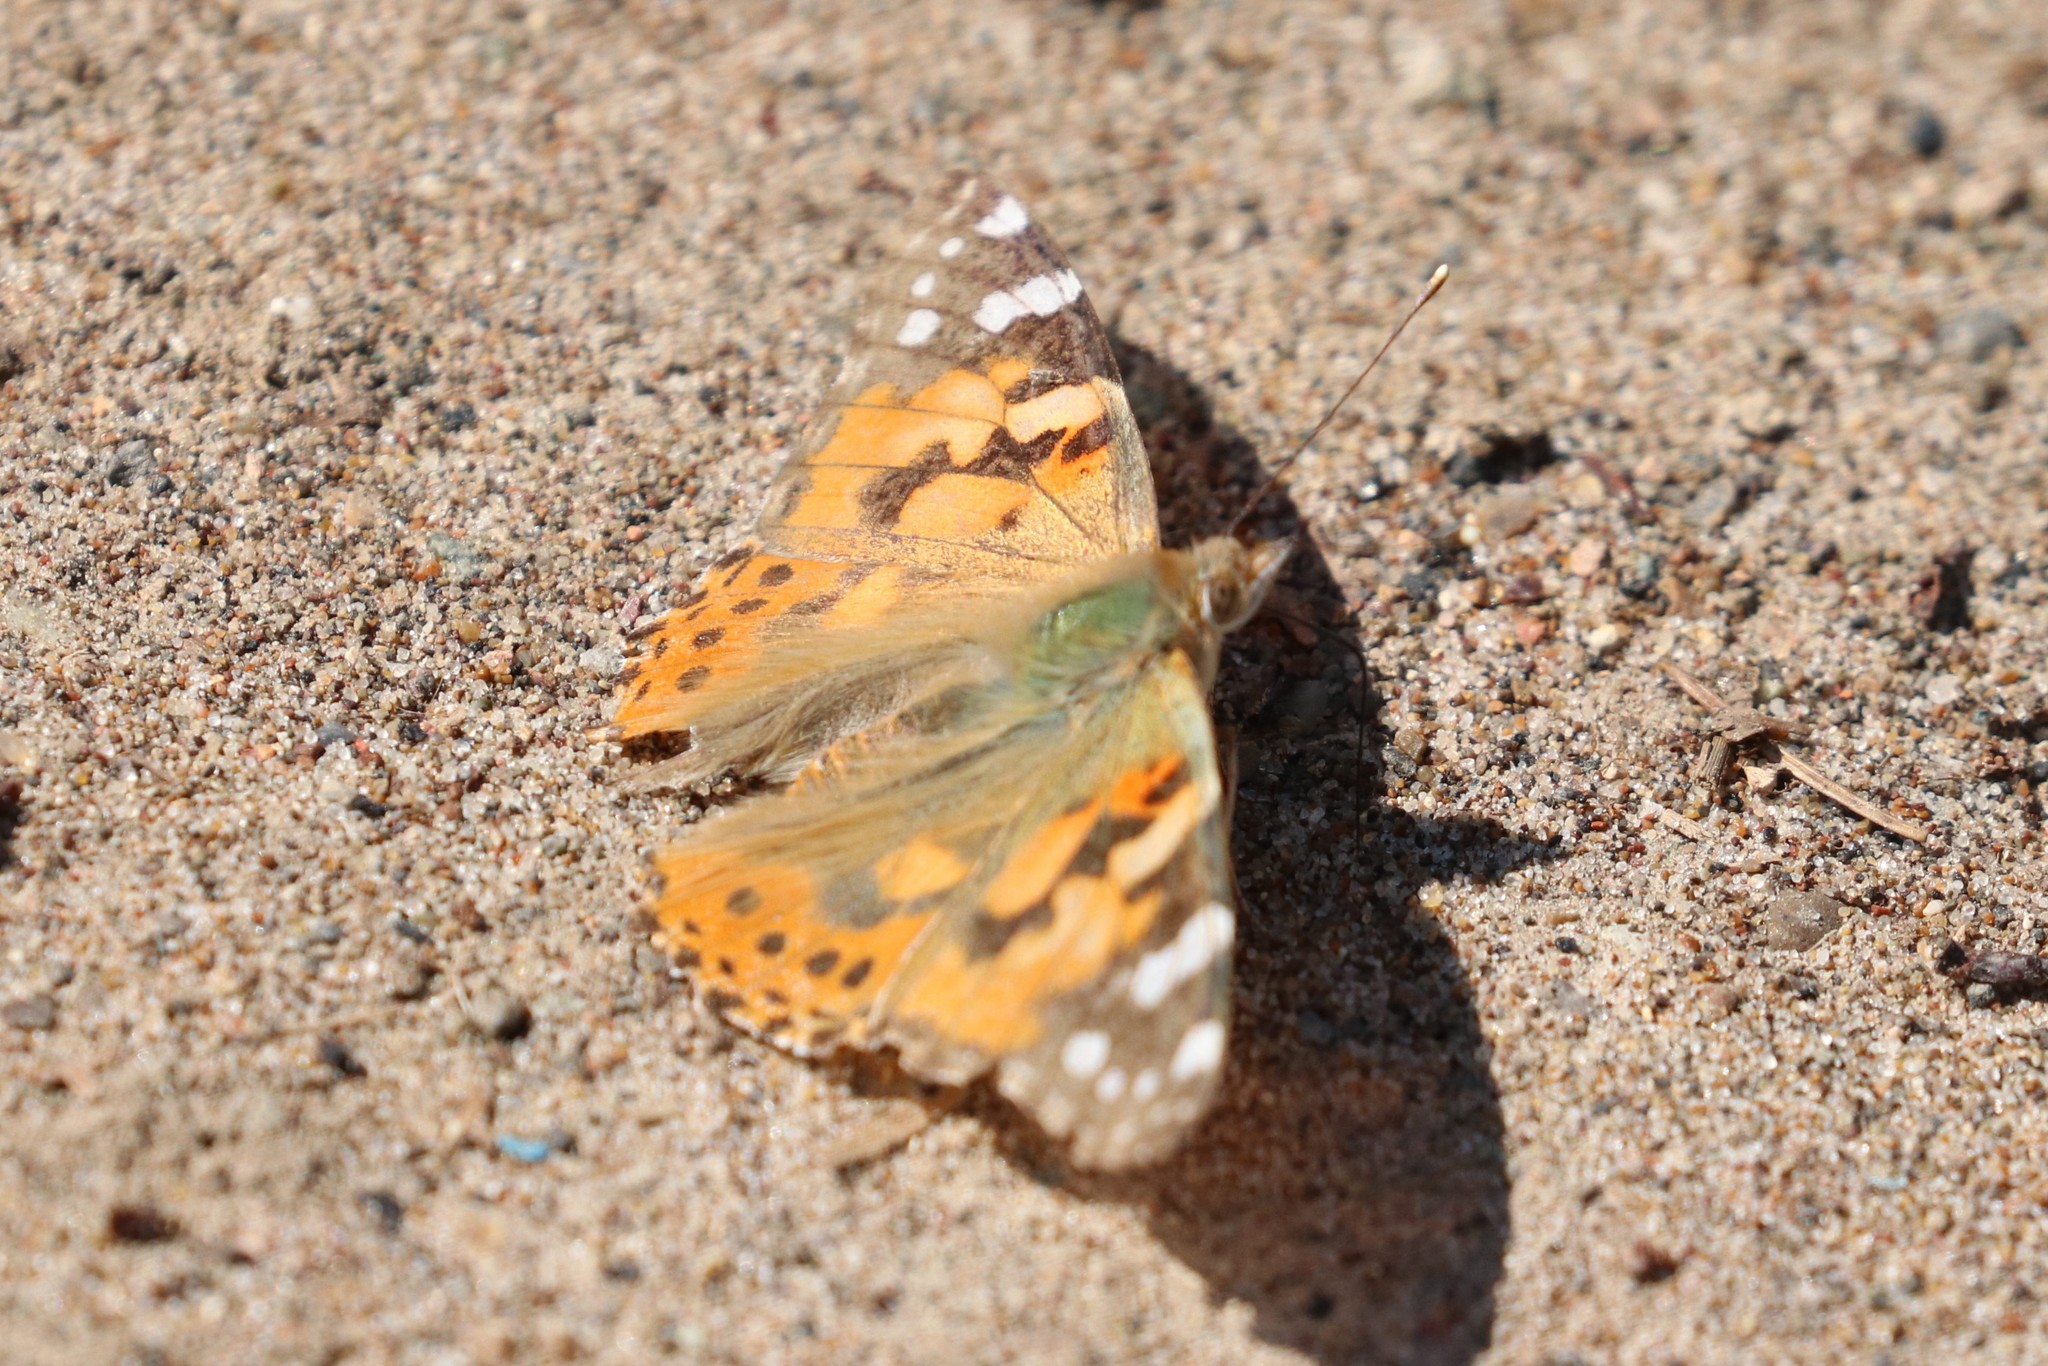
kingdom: Animalia
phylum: Arthropoda
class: Insecta
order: Lepidoptera
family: Nymphalidae
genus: Vanessa
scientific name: Vanessa cardui
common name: Painted lady
